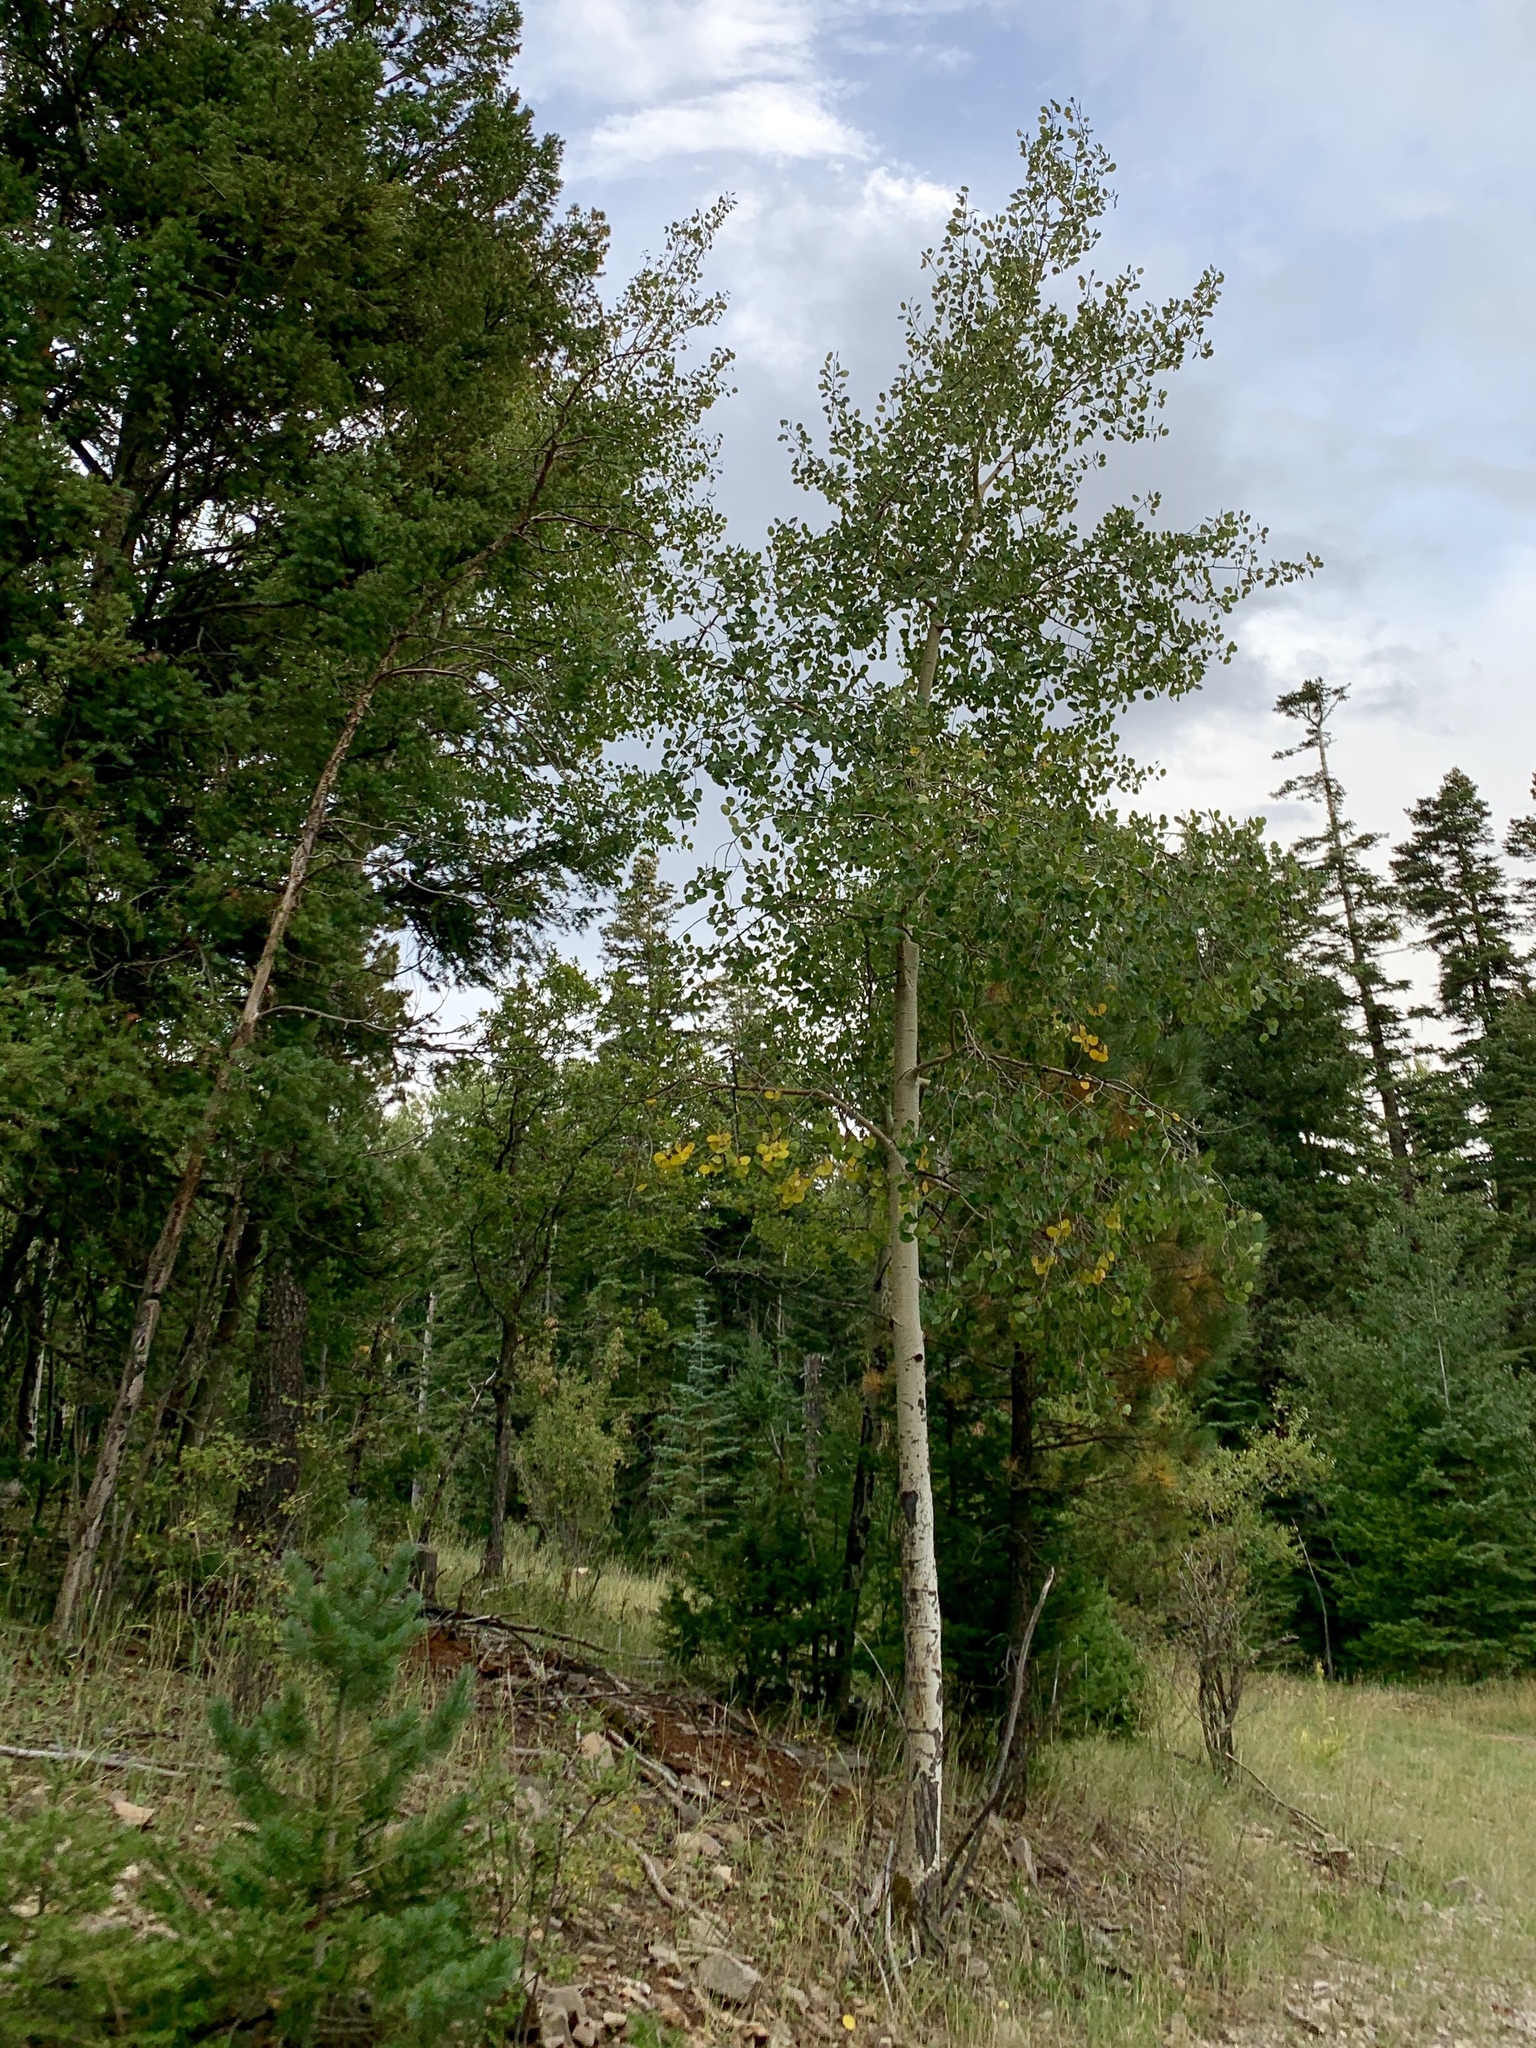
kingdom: Plantae
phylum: Tracheophyta
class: Magnoliopsida
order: Malpighiales
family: Salicaceae
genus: Populus
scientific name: Populus tremuloides
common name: Quaking aspen
